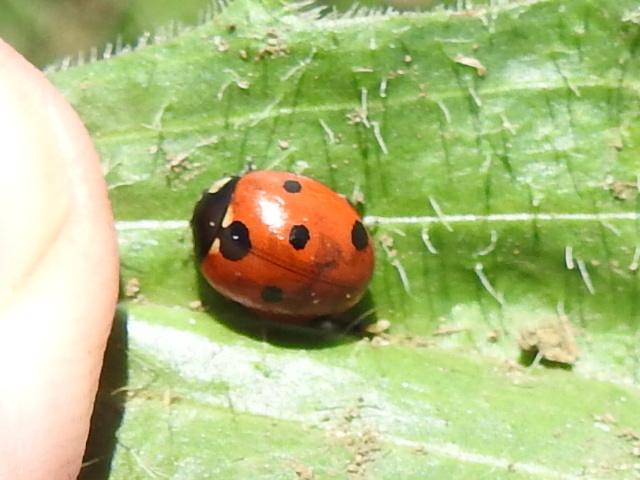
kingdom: Animalia
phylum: Arthropoda
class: Insecta
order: Coleoptera
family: Coccinellidae
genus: Coccinella
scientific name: Coccinella septempunctata
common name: Sevenspotted lady beetle
